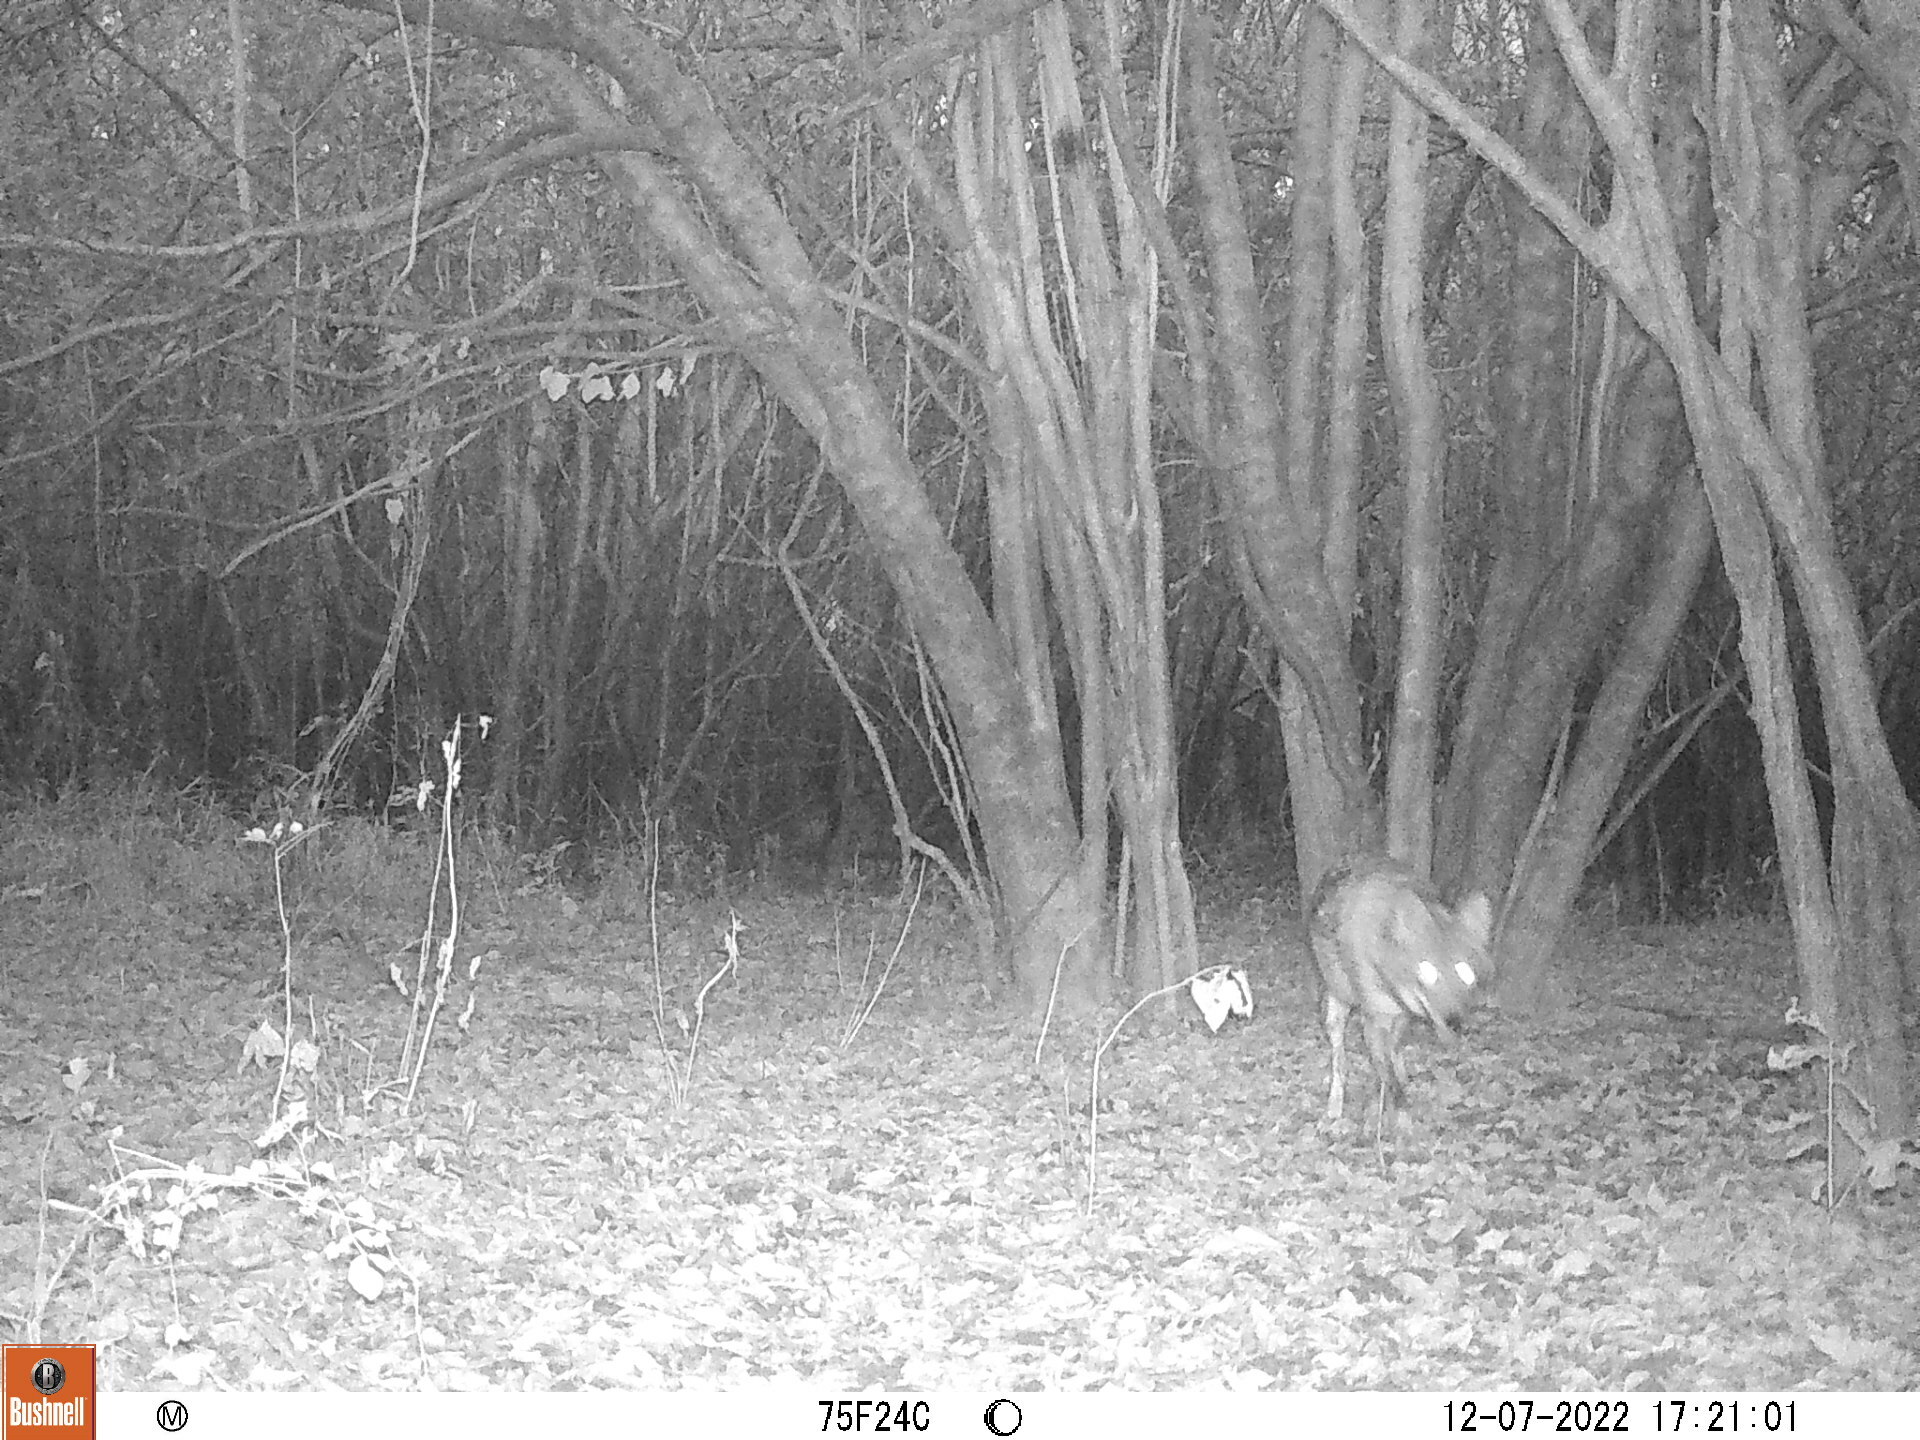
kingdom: Animalia
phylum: Chordata
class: Mammalia
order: Carnivora
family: Canidae
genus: Canis
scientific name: Canis latrans
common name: Coyote
